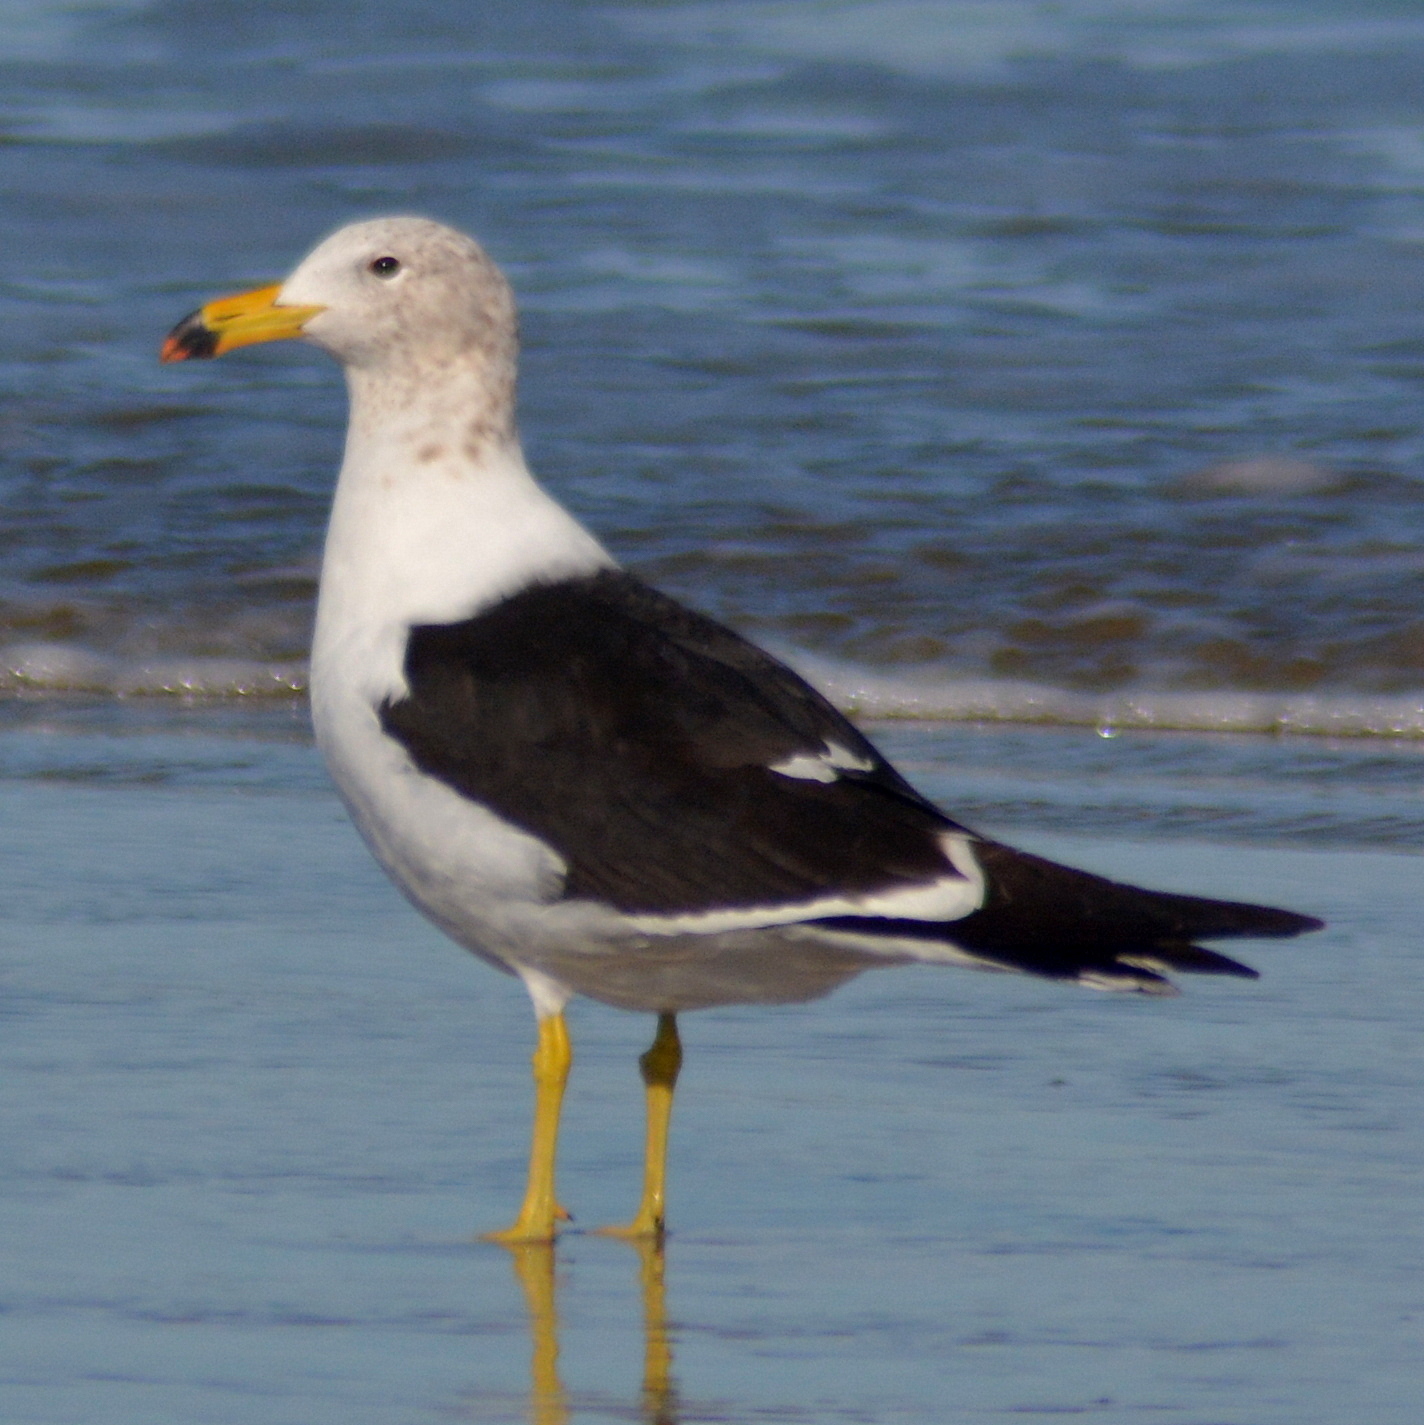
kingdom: Animalia
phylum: Chordata
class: Aves
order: Charadriiformes
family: Laridae
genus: Larus
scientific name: Larus atlanticus
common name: Olrog's gull
